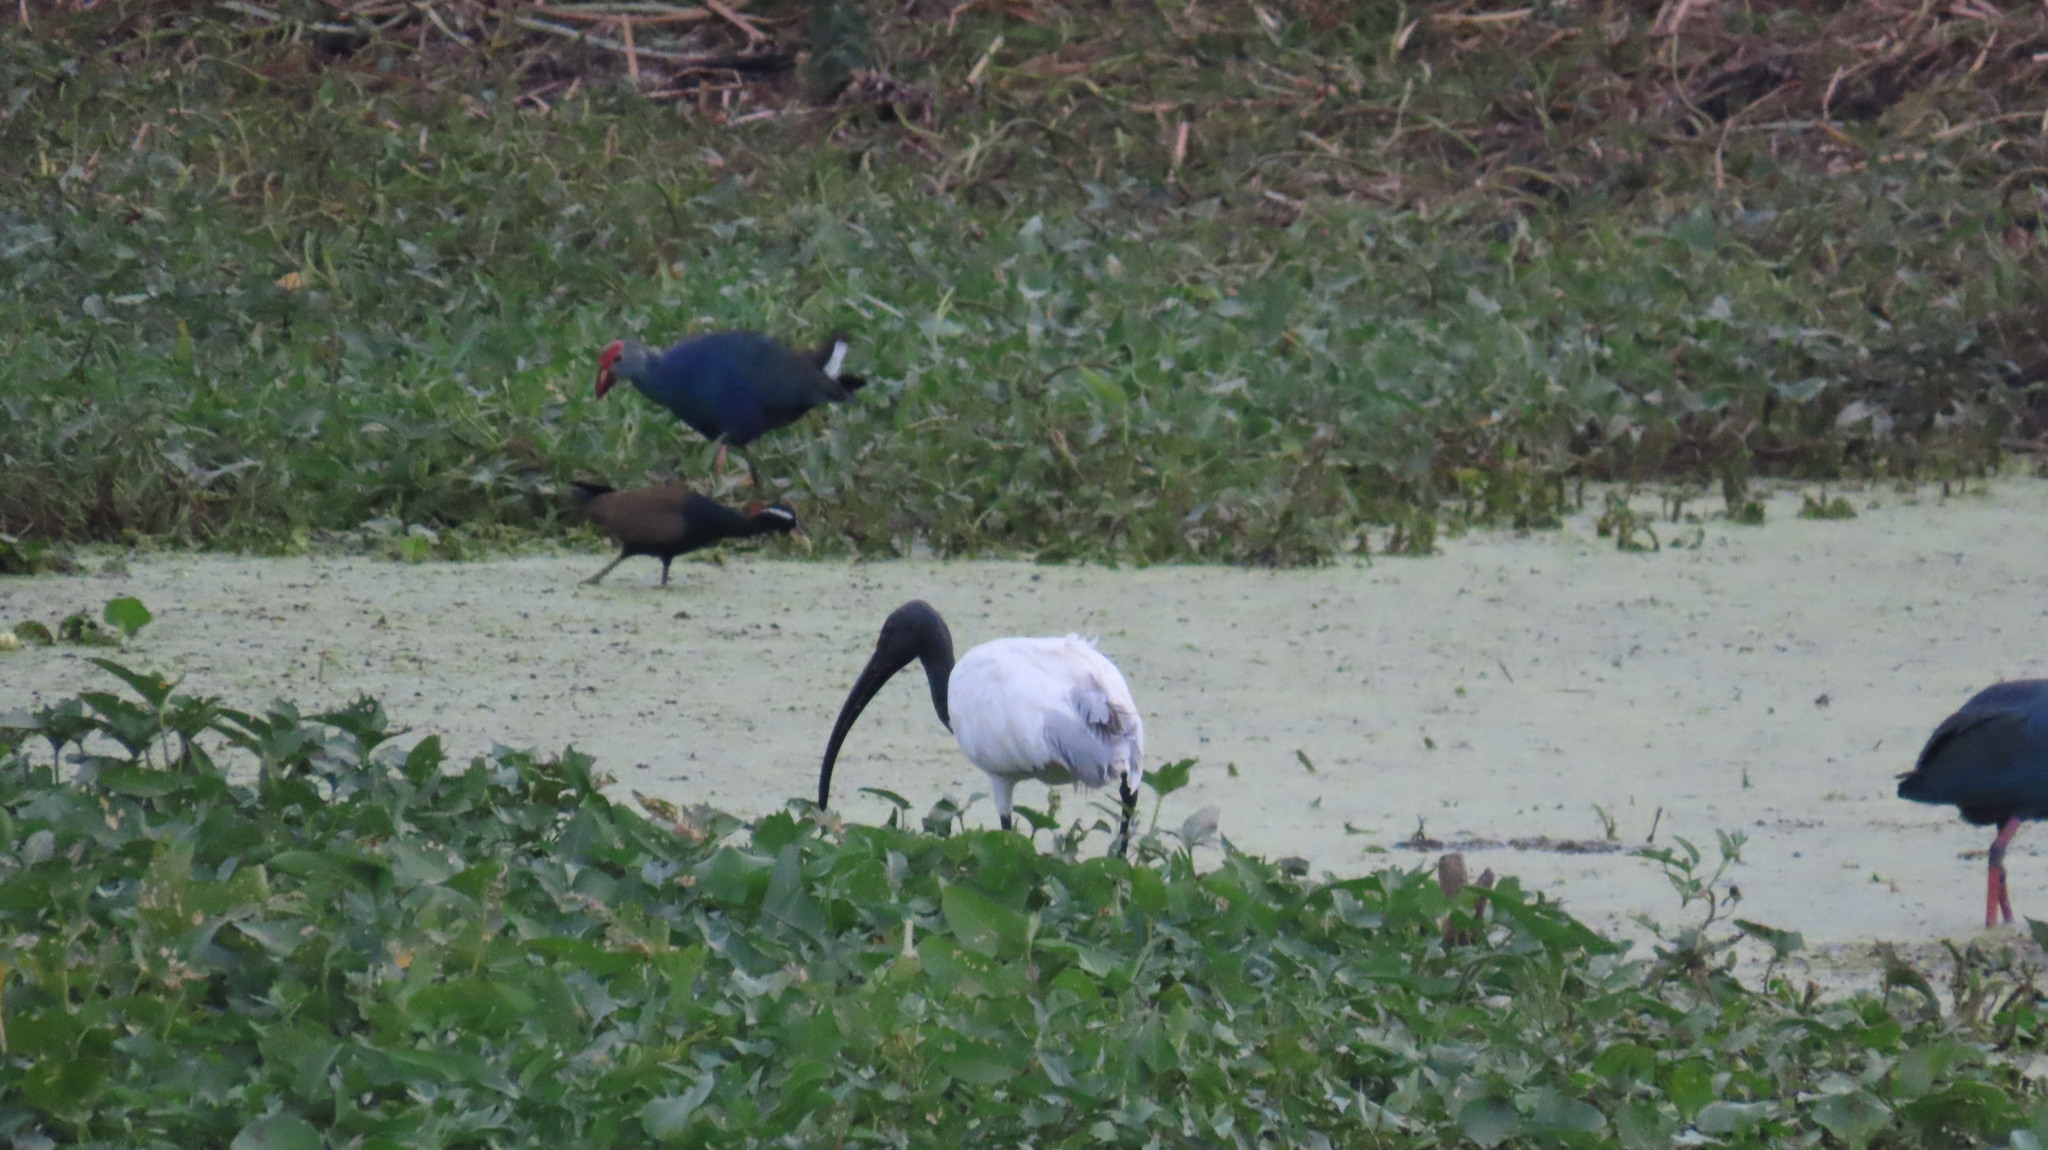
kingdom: Animalia
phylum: Chordata
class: Aves
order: Pelecaniformes
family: Threskiornithidae
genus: Threskiornis
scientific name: Threskiornis melanocephalus
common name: Black-headed ibis
